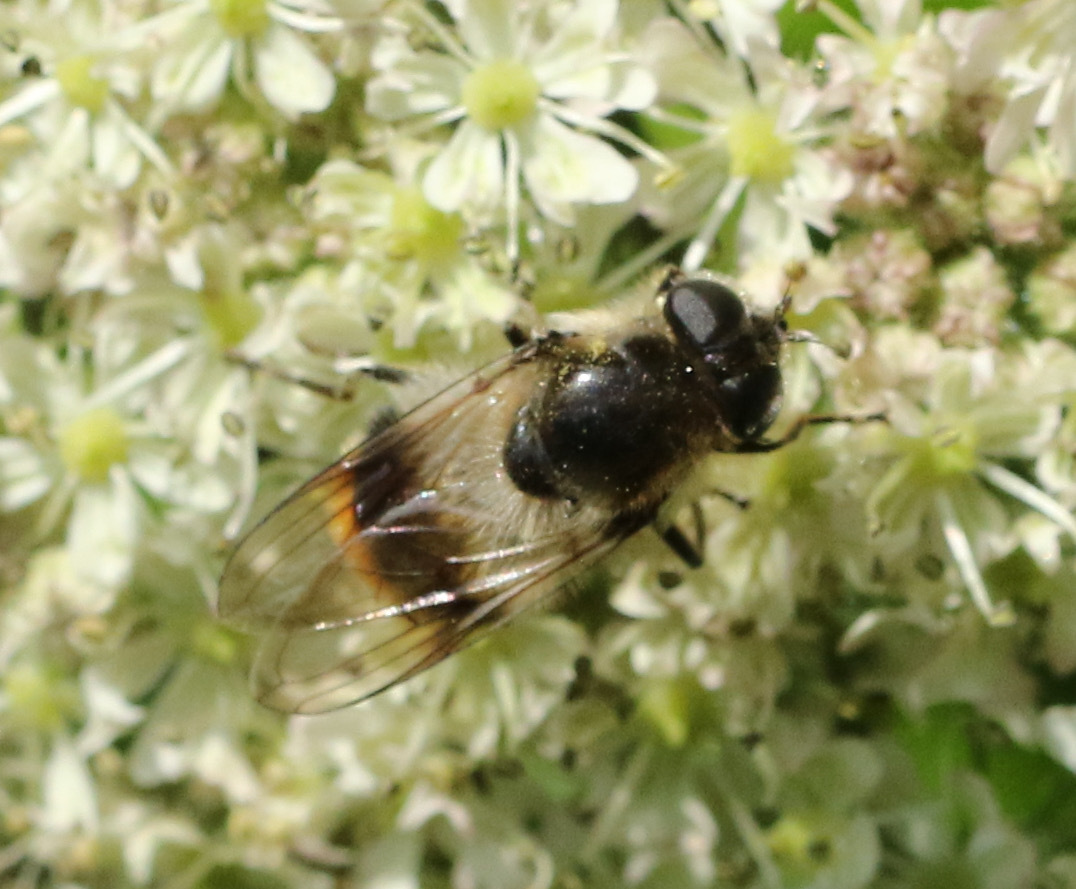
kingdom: Animalia
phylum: Arthropoda
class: Insecta
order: Diptera
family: Syrphidae
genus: Cheilosia
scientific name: Cheilosia illustrata
